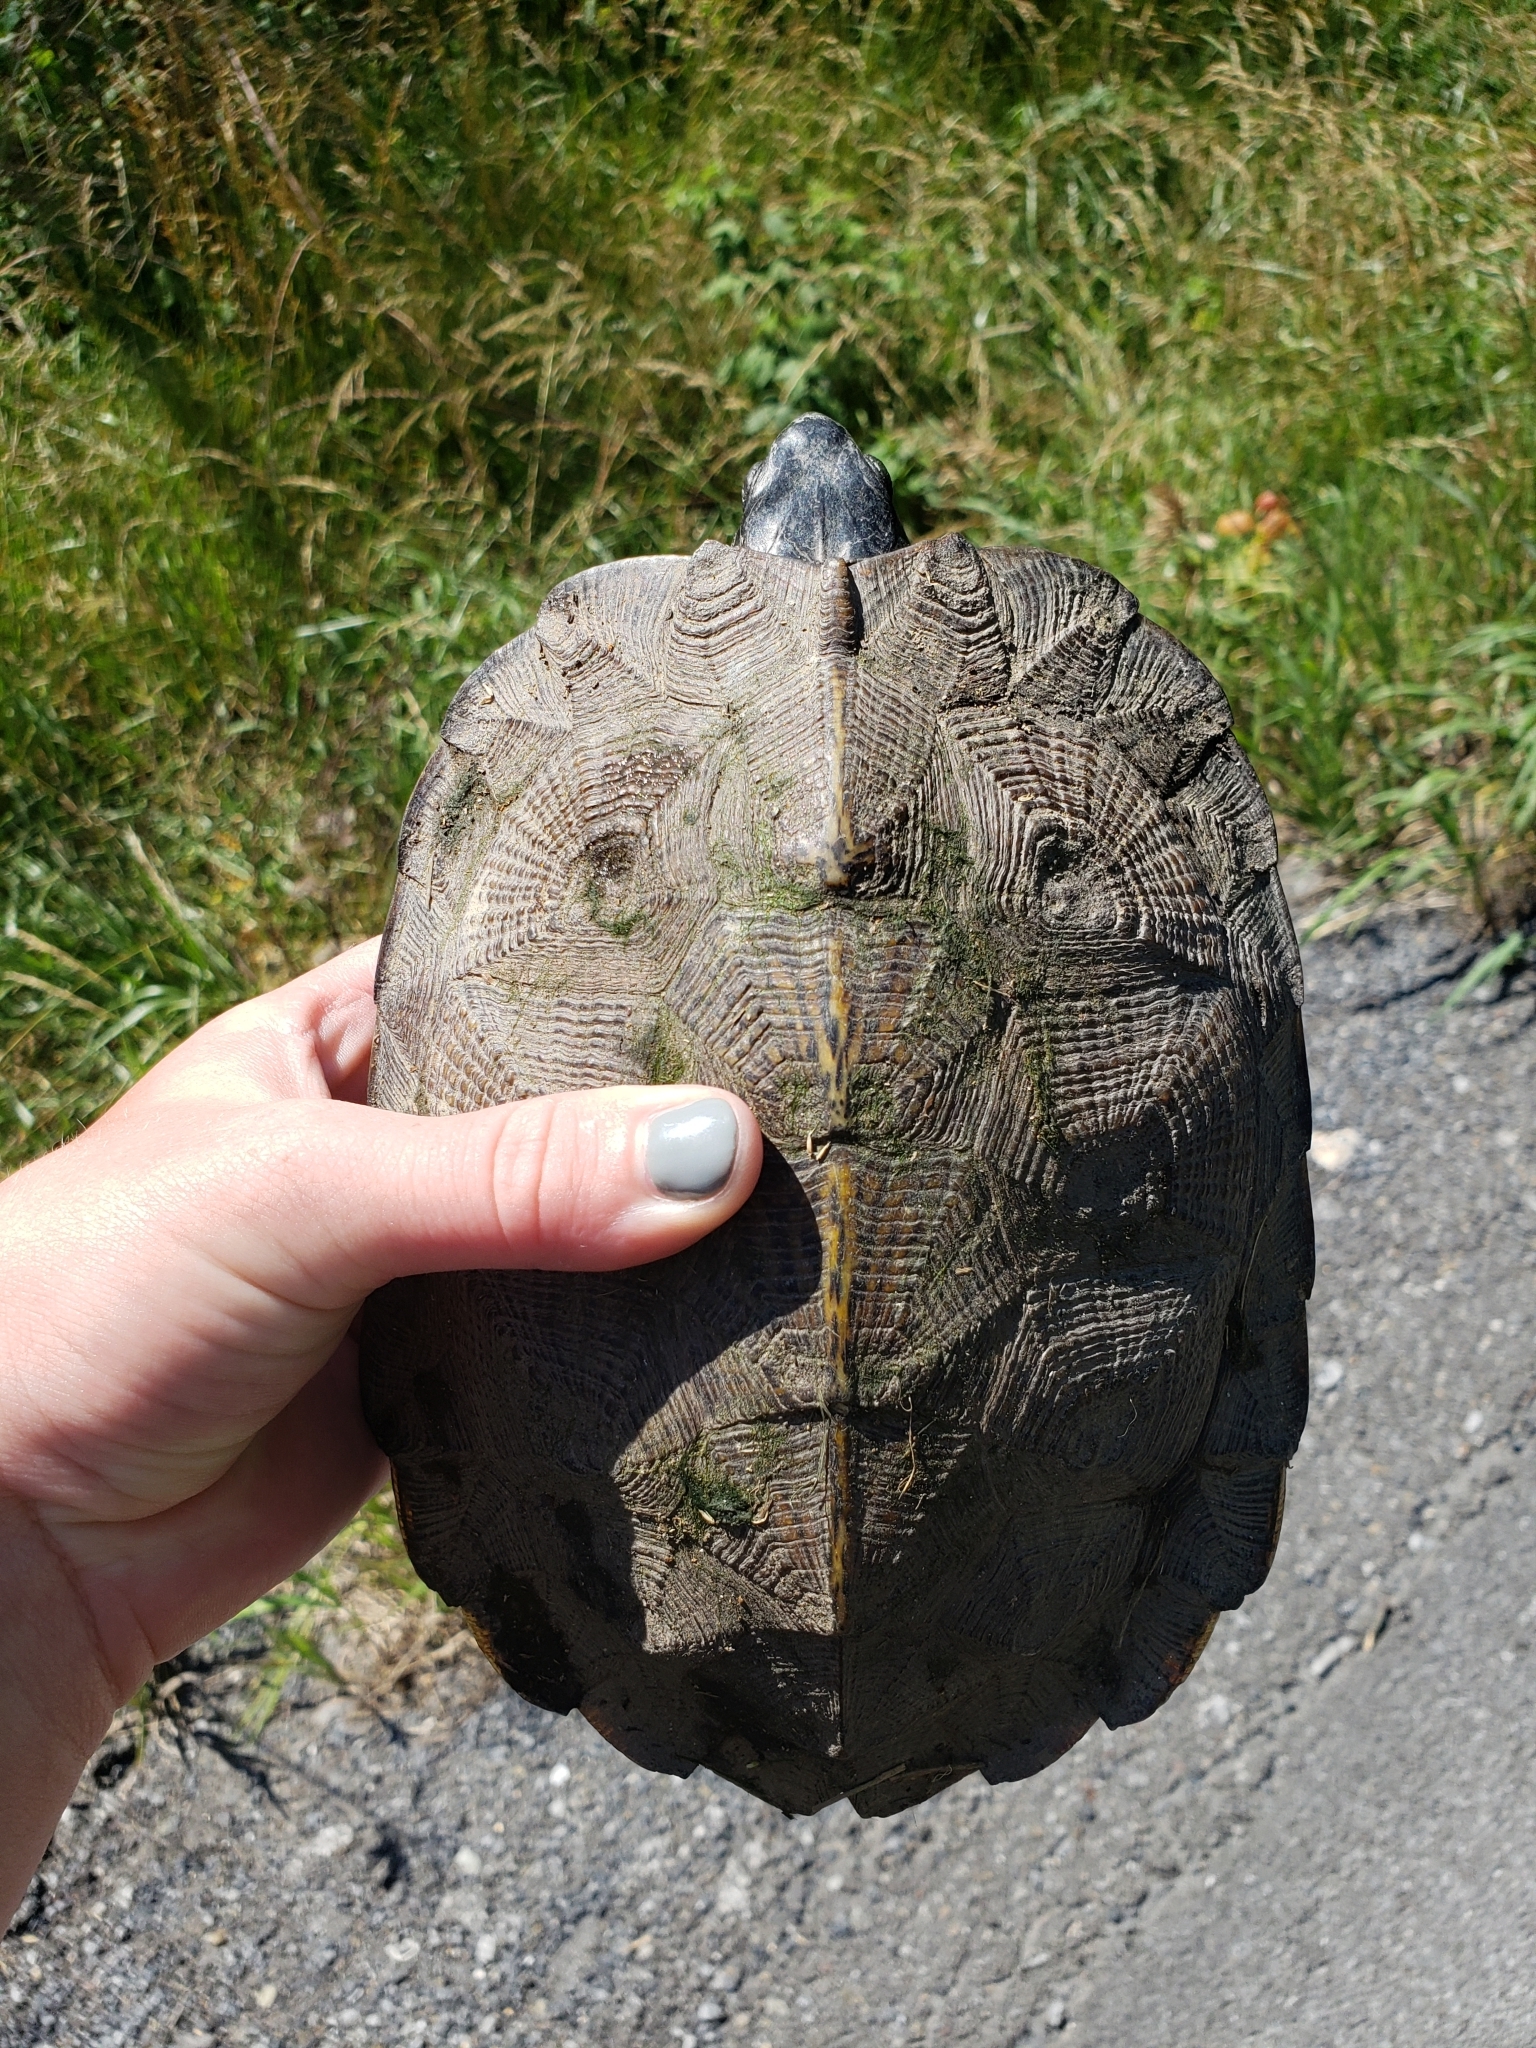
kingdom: Animalia
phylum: Chordata
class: Testudines
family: Emydidae
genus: Glyptemys
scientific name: Glyptemys insculpta
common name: Wood turtle
